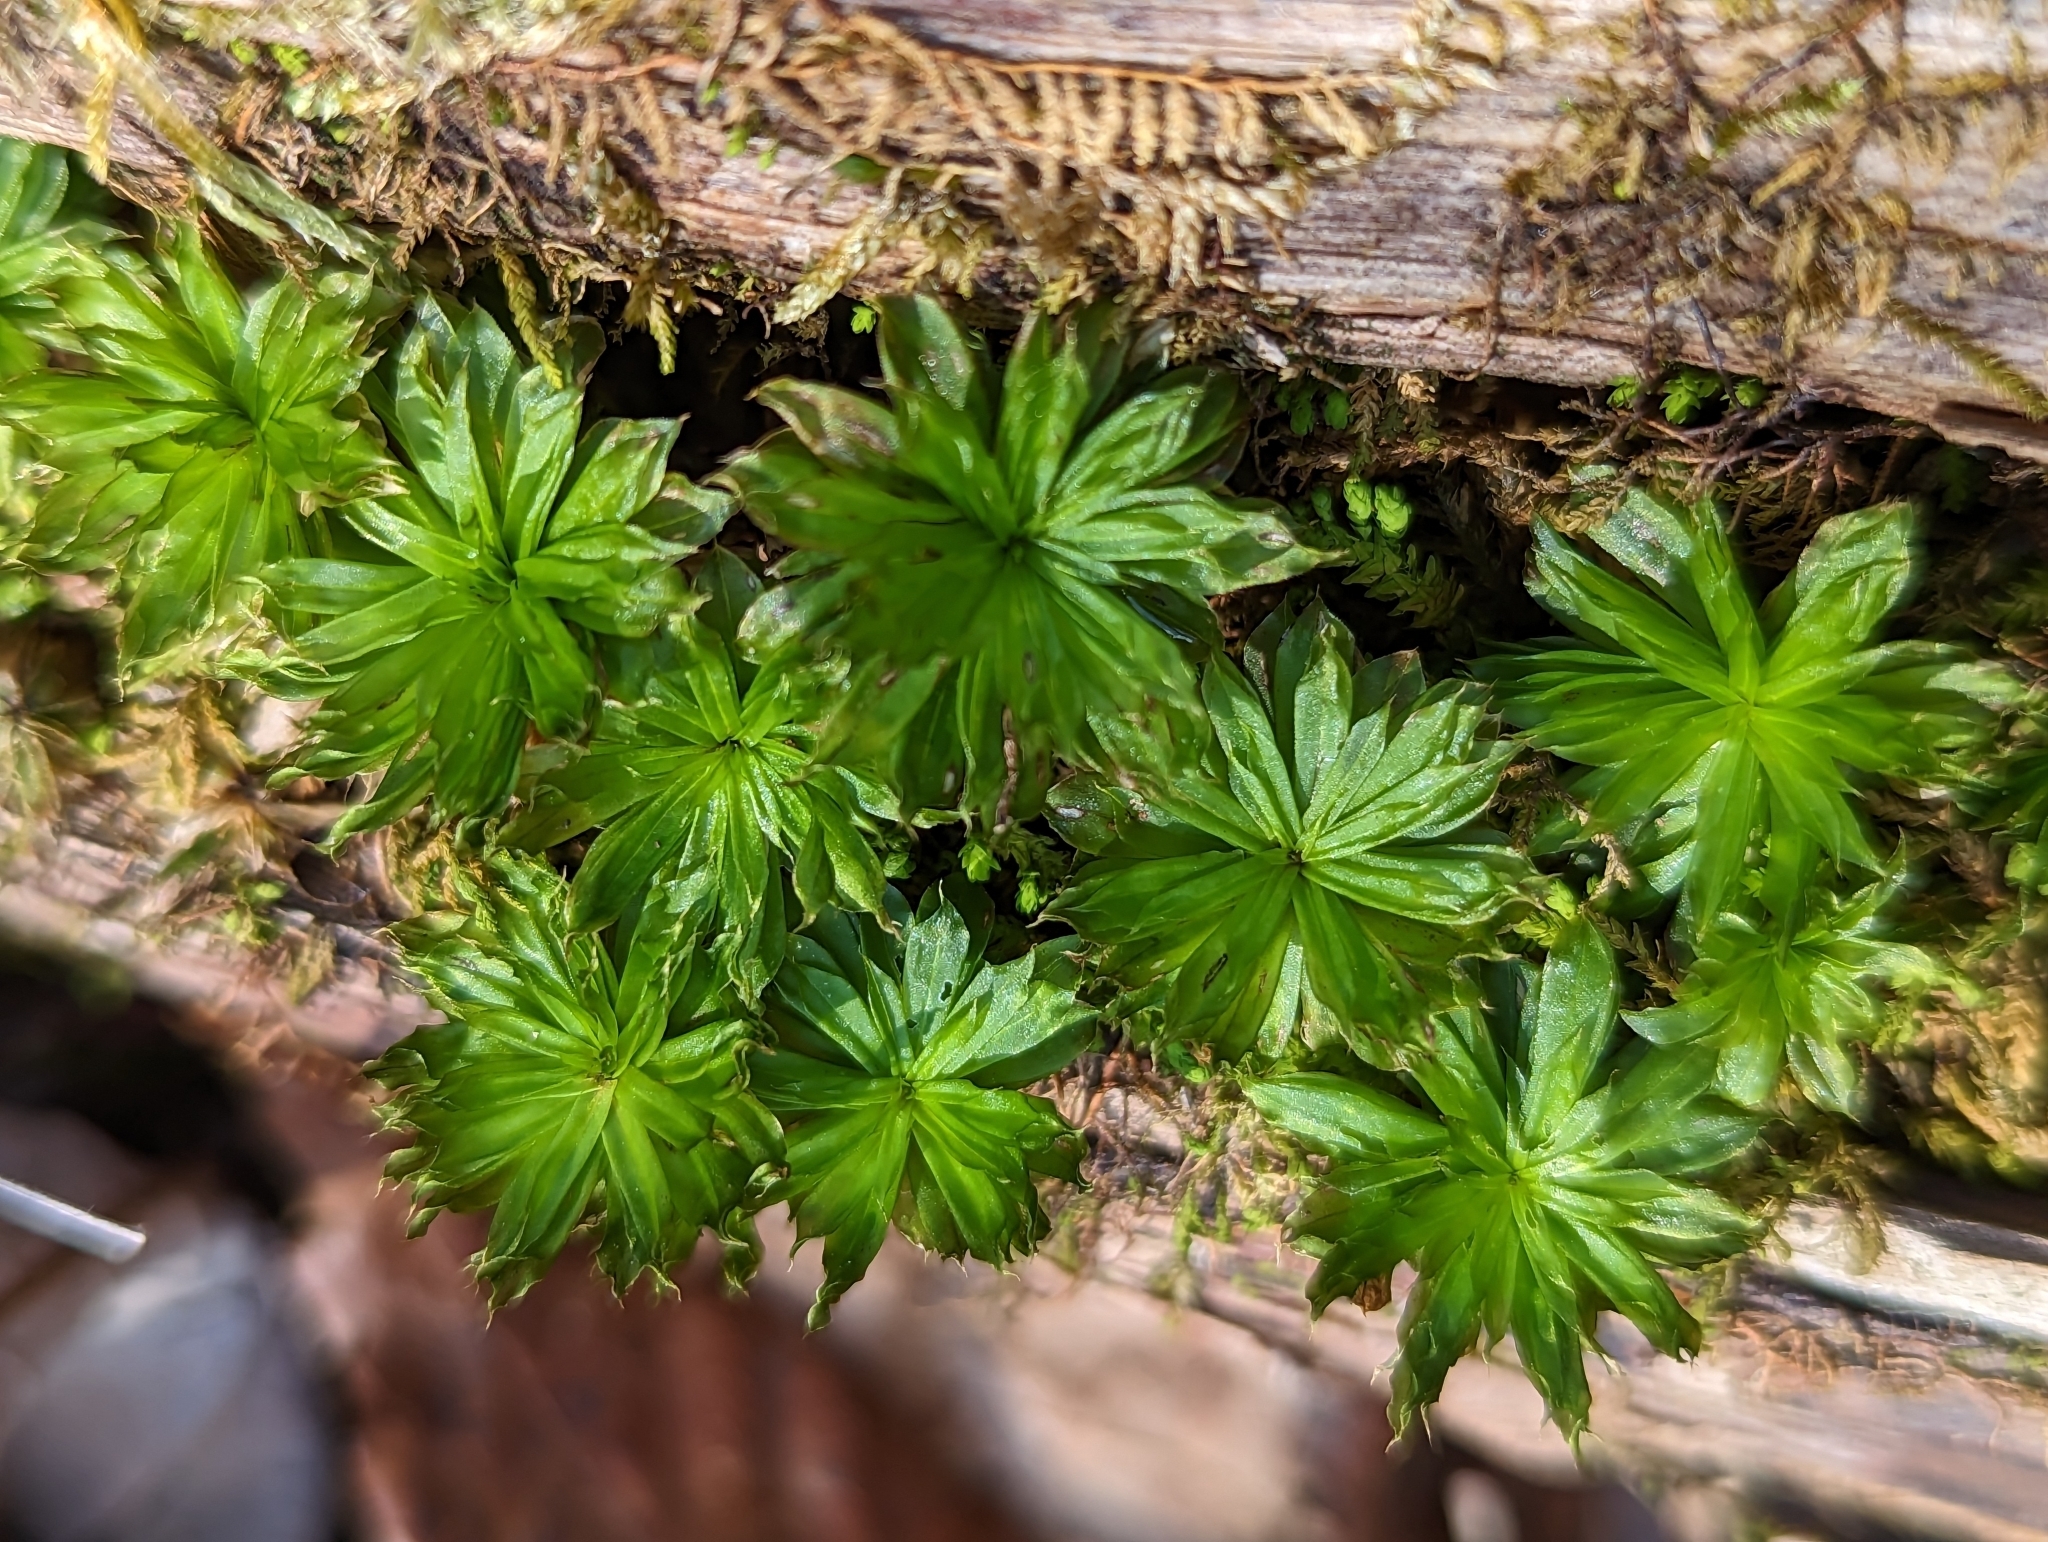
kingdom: Plantae
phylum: Bryophyta
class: Bryopsida
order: Bryales
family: Bryaceae
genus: Rhodobryum
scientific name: Rhodobryum ontariense
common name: Ontario rhodobryum moss
